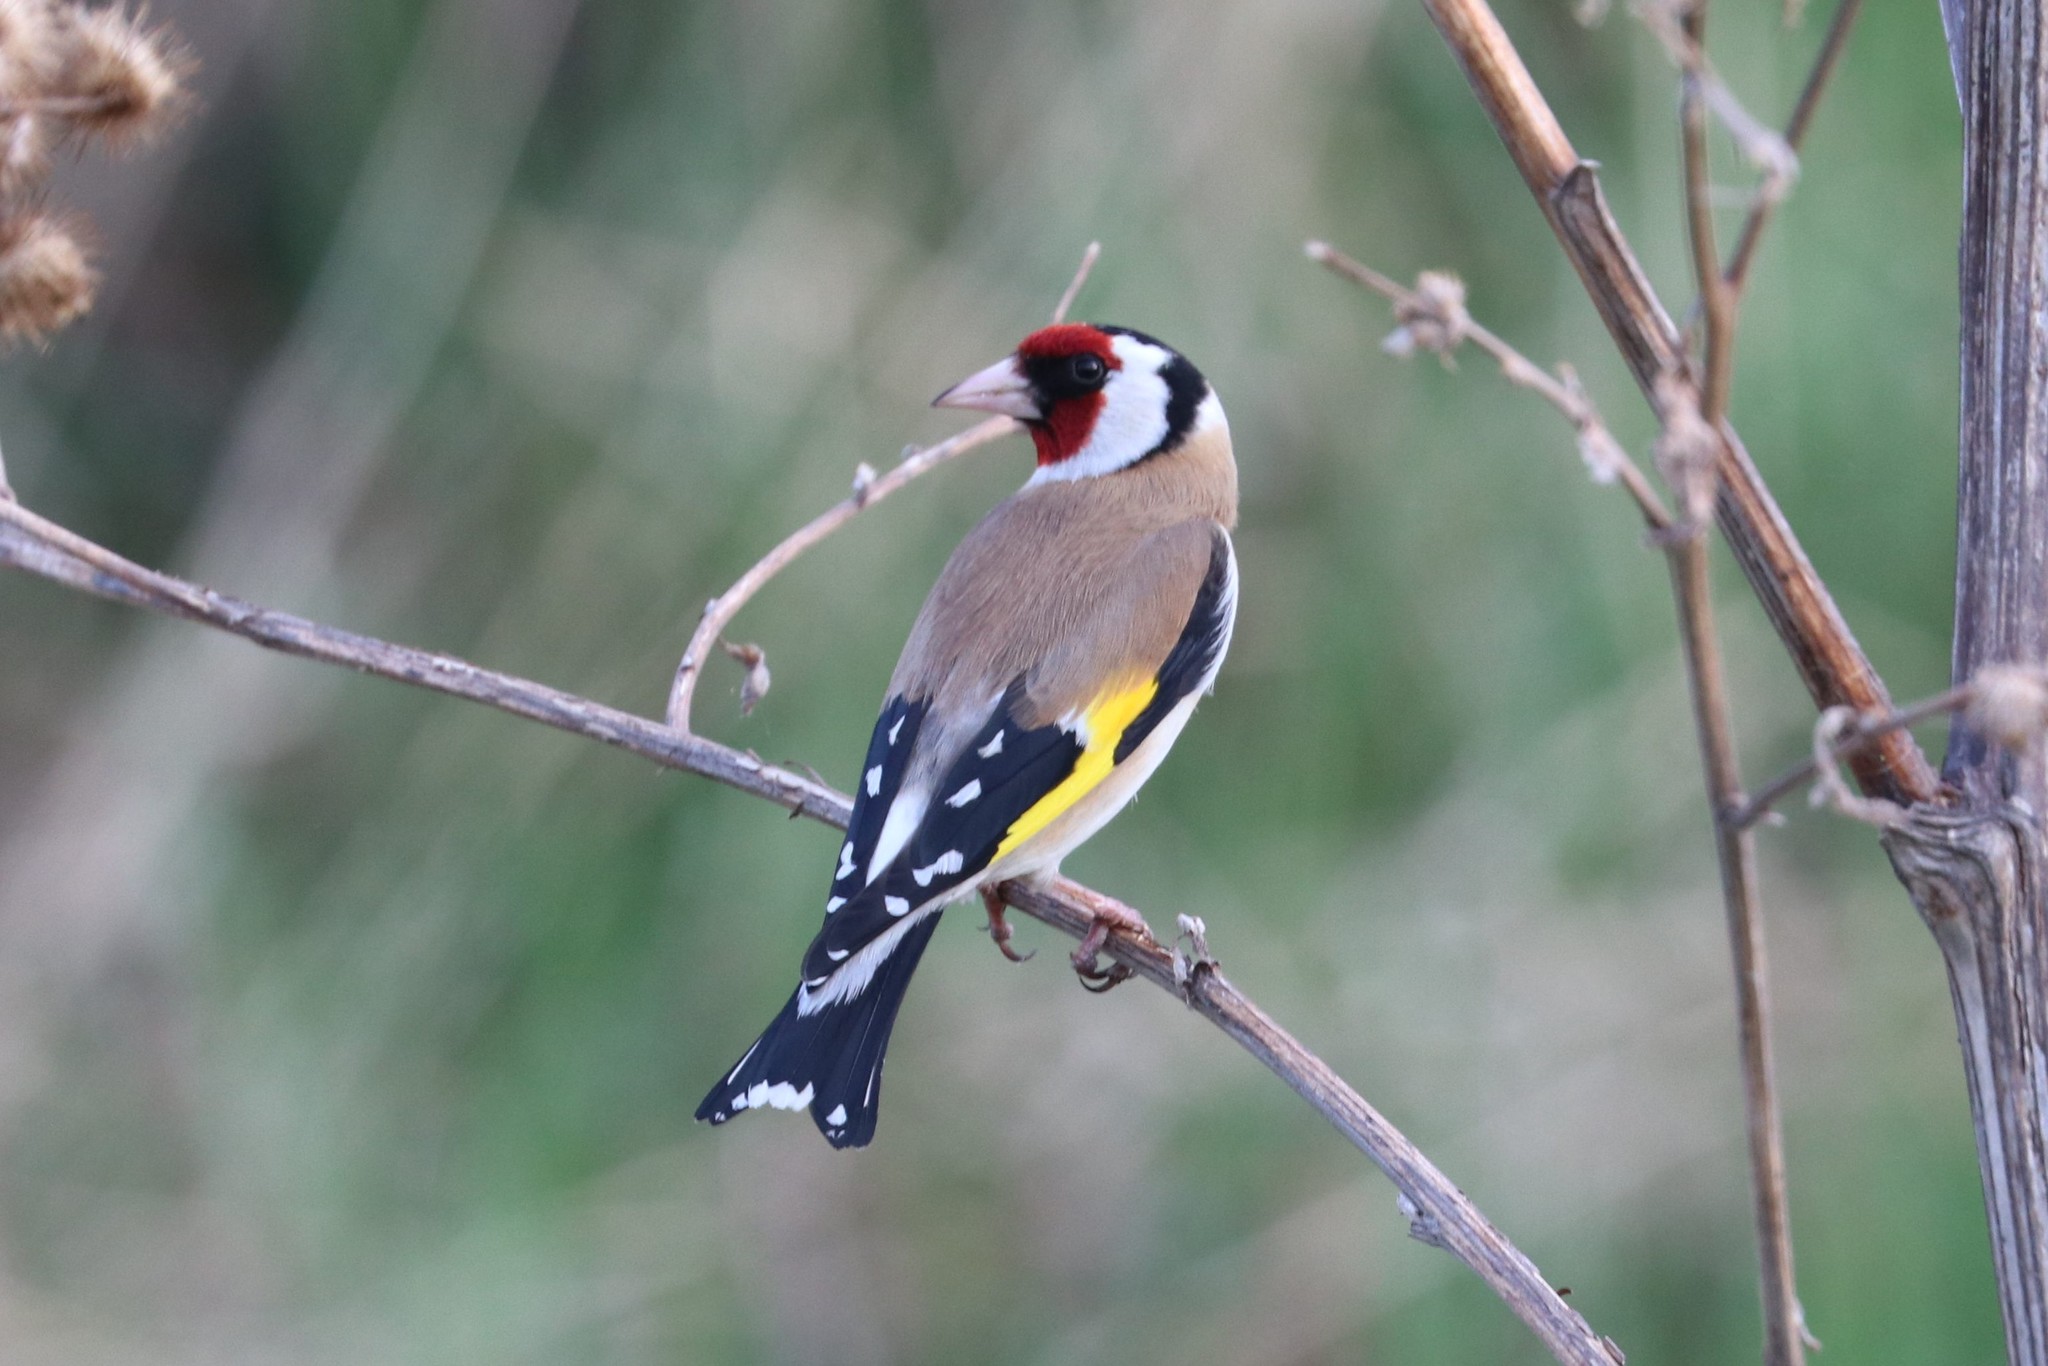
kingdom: Animalia
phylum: Chordata
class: Aves
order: Passeriformes
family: Fringillidae
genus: Carduelis
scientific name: Carduelis carduelis
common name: European goldfinch
